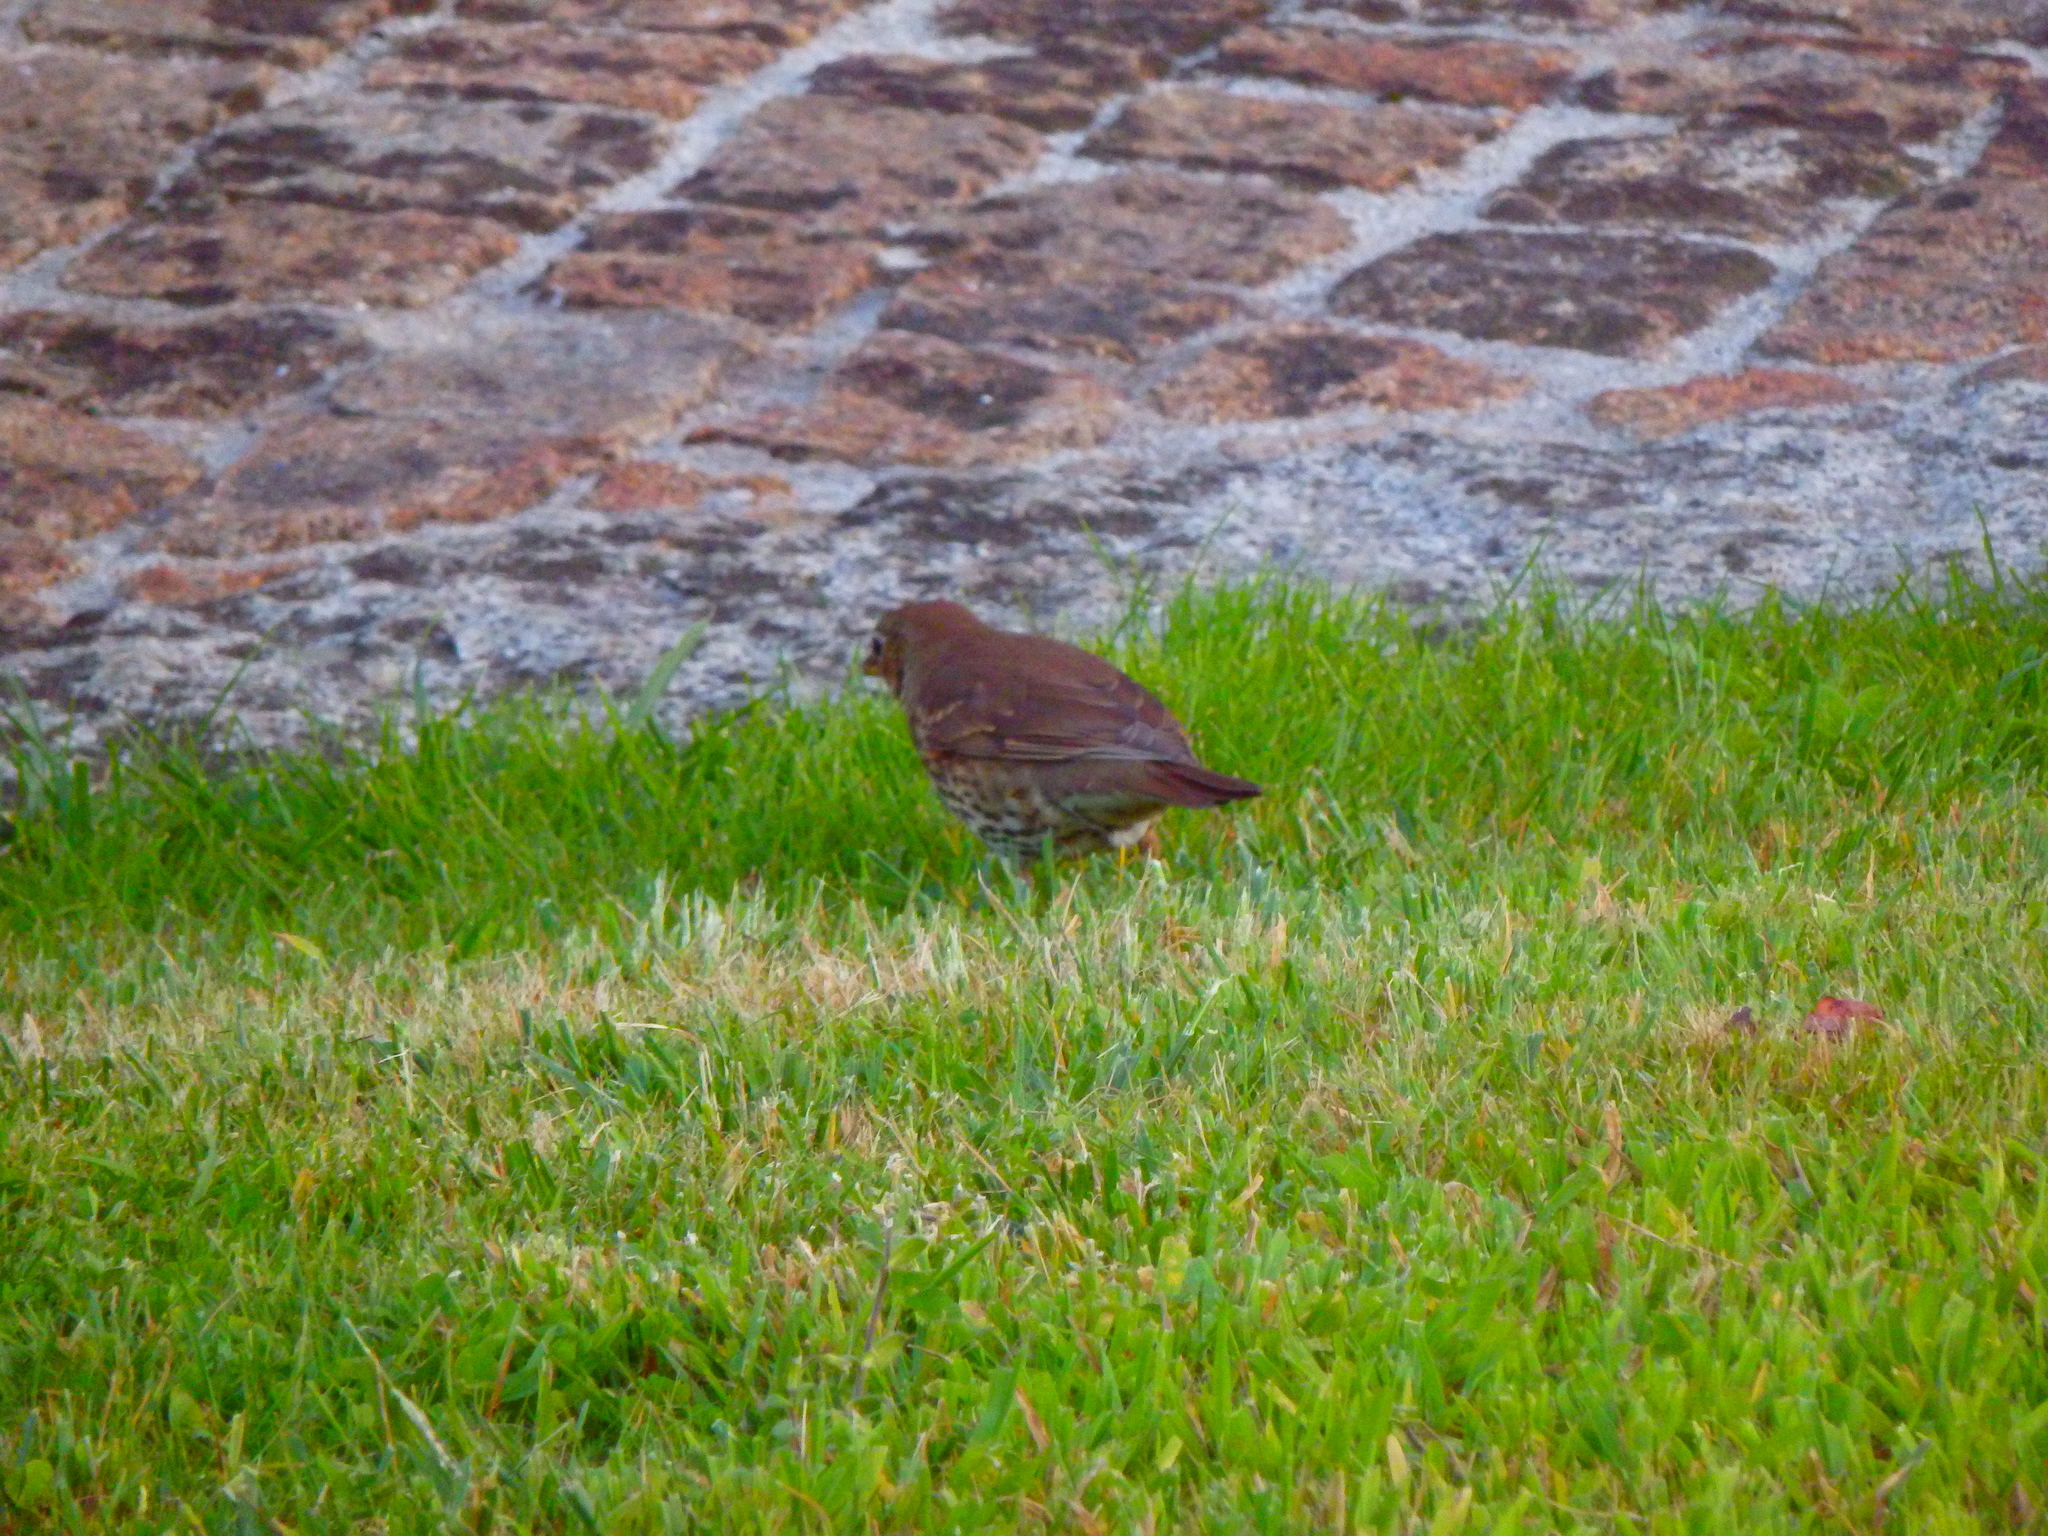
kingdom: Animalia
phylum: Chordata
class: Aves
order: Passeriformes
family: Turdidae
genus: Turdus
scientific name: Turdus philomelos
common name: Song thrush
